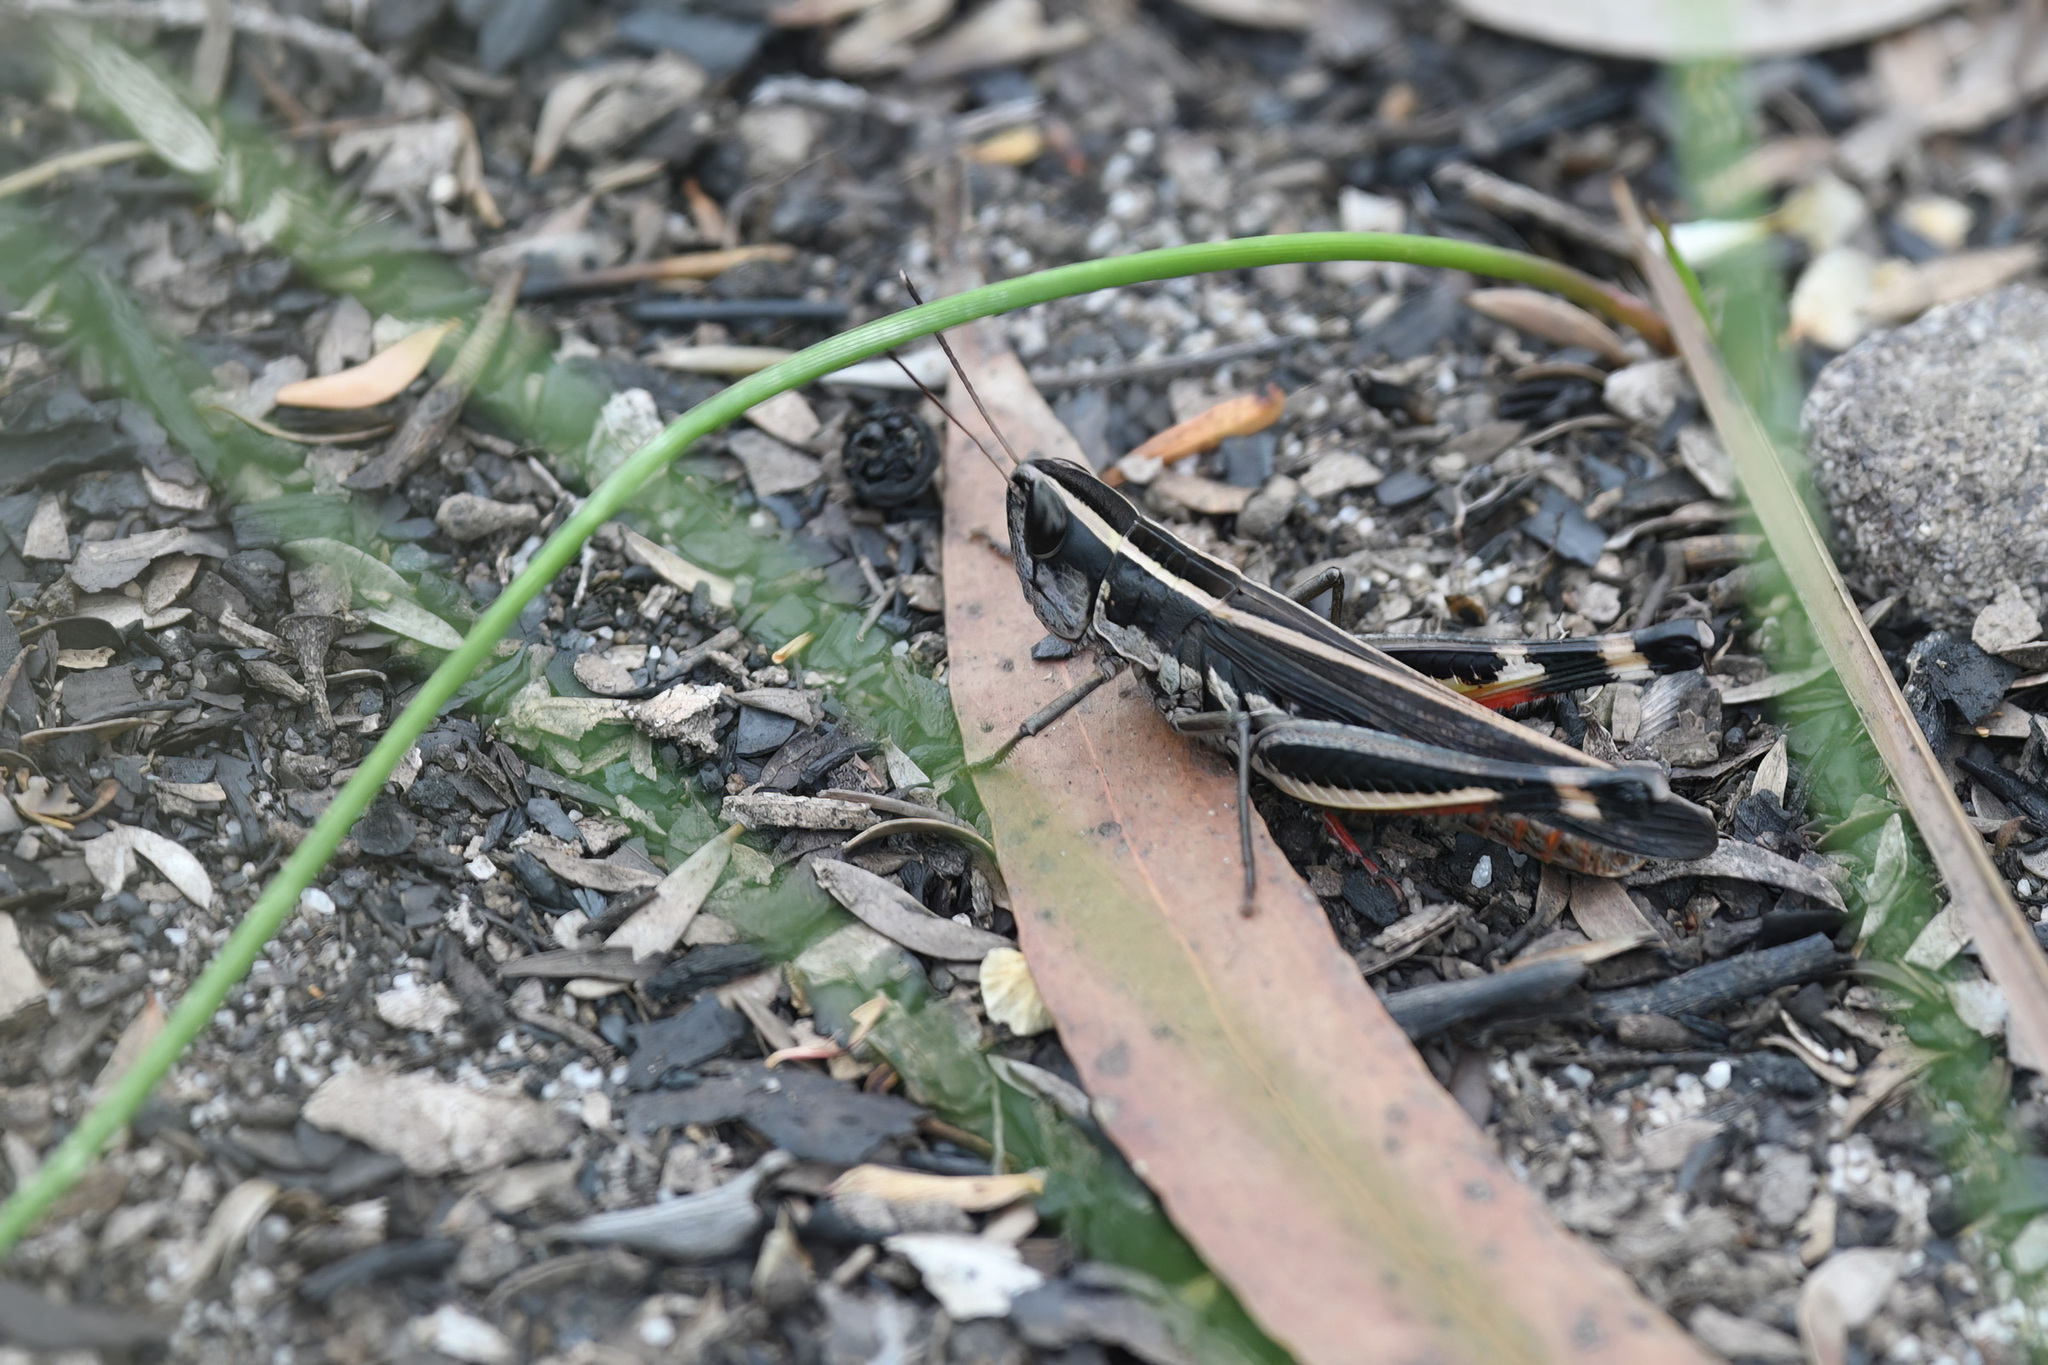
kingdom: Animalia
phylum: Arthropoda
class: Insecta
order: Orthoptera
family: Acrididae
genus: Macrotona
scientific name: Macrotona australis
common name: Common macrotona
